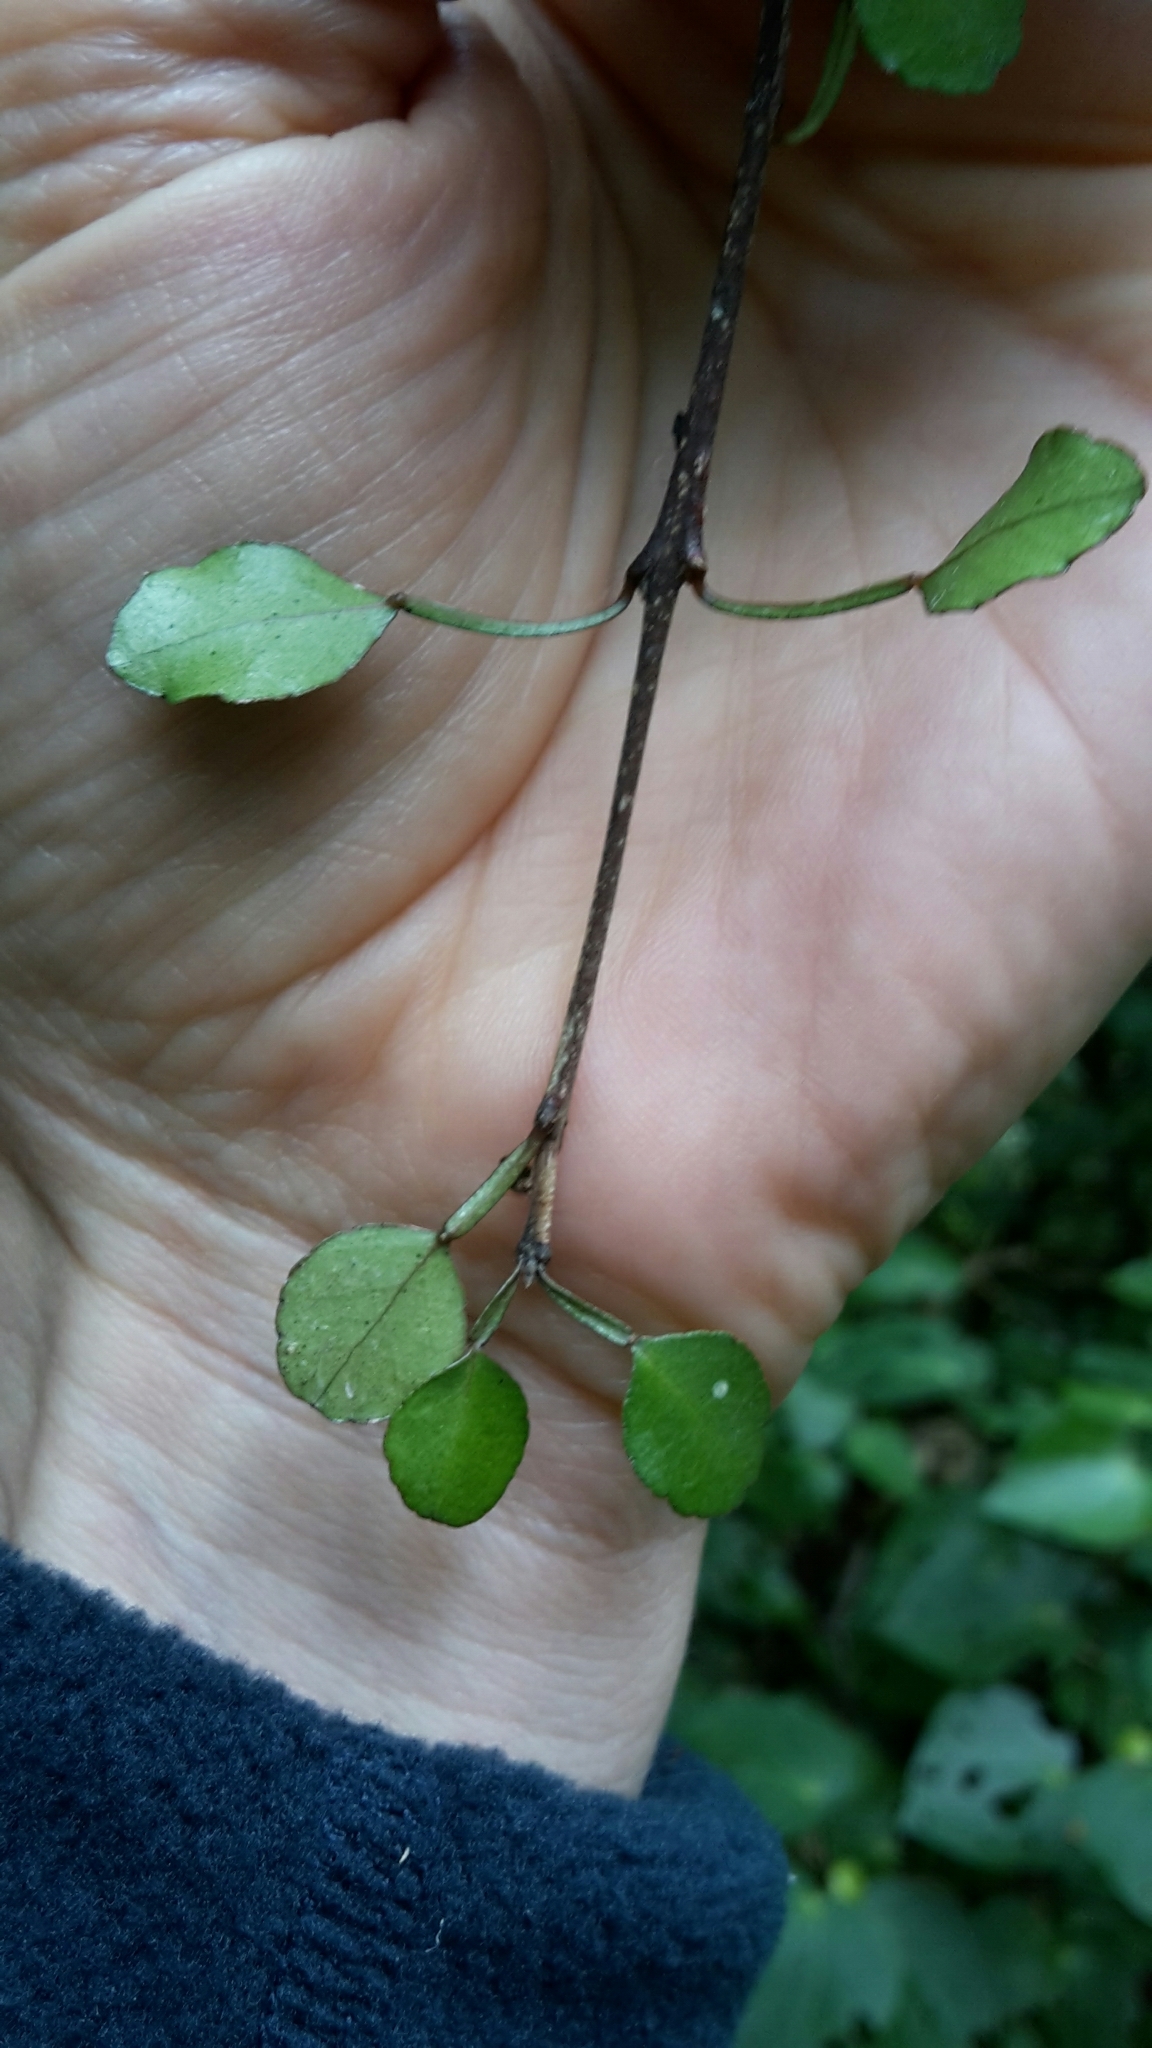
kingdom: Plantae
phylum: Tracheophyta
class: Magnoliopsida
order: Sapindales
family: Rutaceae
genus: Melicope
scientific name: Melicope simplex
